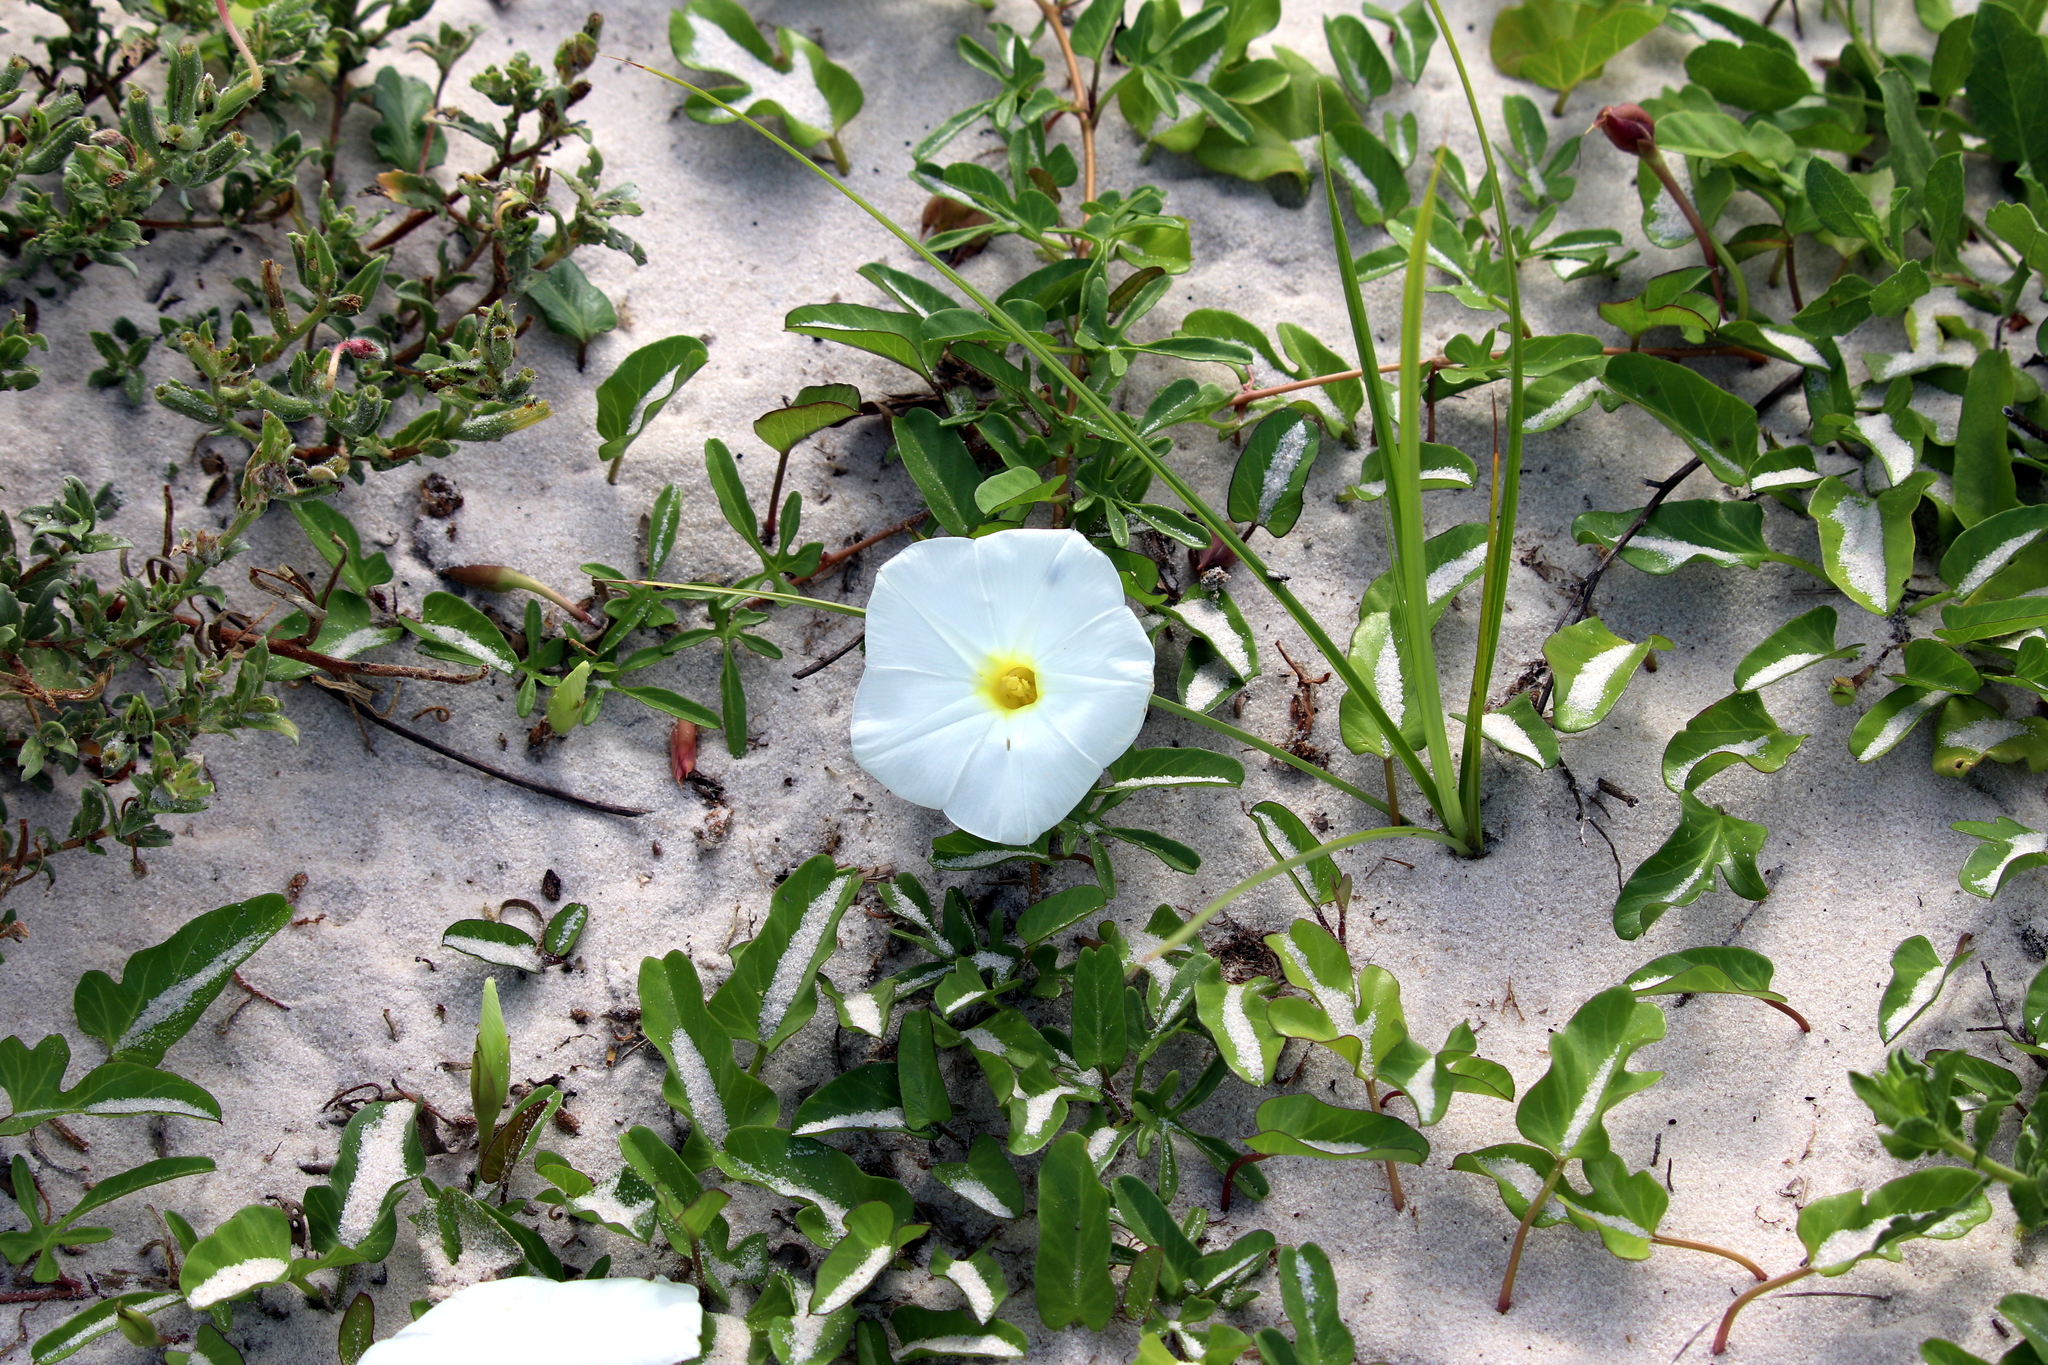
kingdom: Plantae
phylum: Tracheophyta
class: Magnoliopsida
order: Solanales
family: Convolvulaceae
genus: Ipomoea
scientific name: Ipomoea imperati
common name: Fiddle-leaf morning-glory
